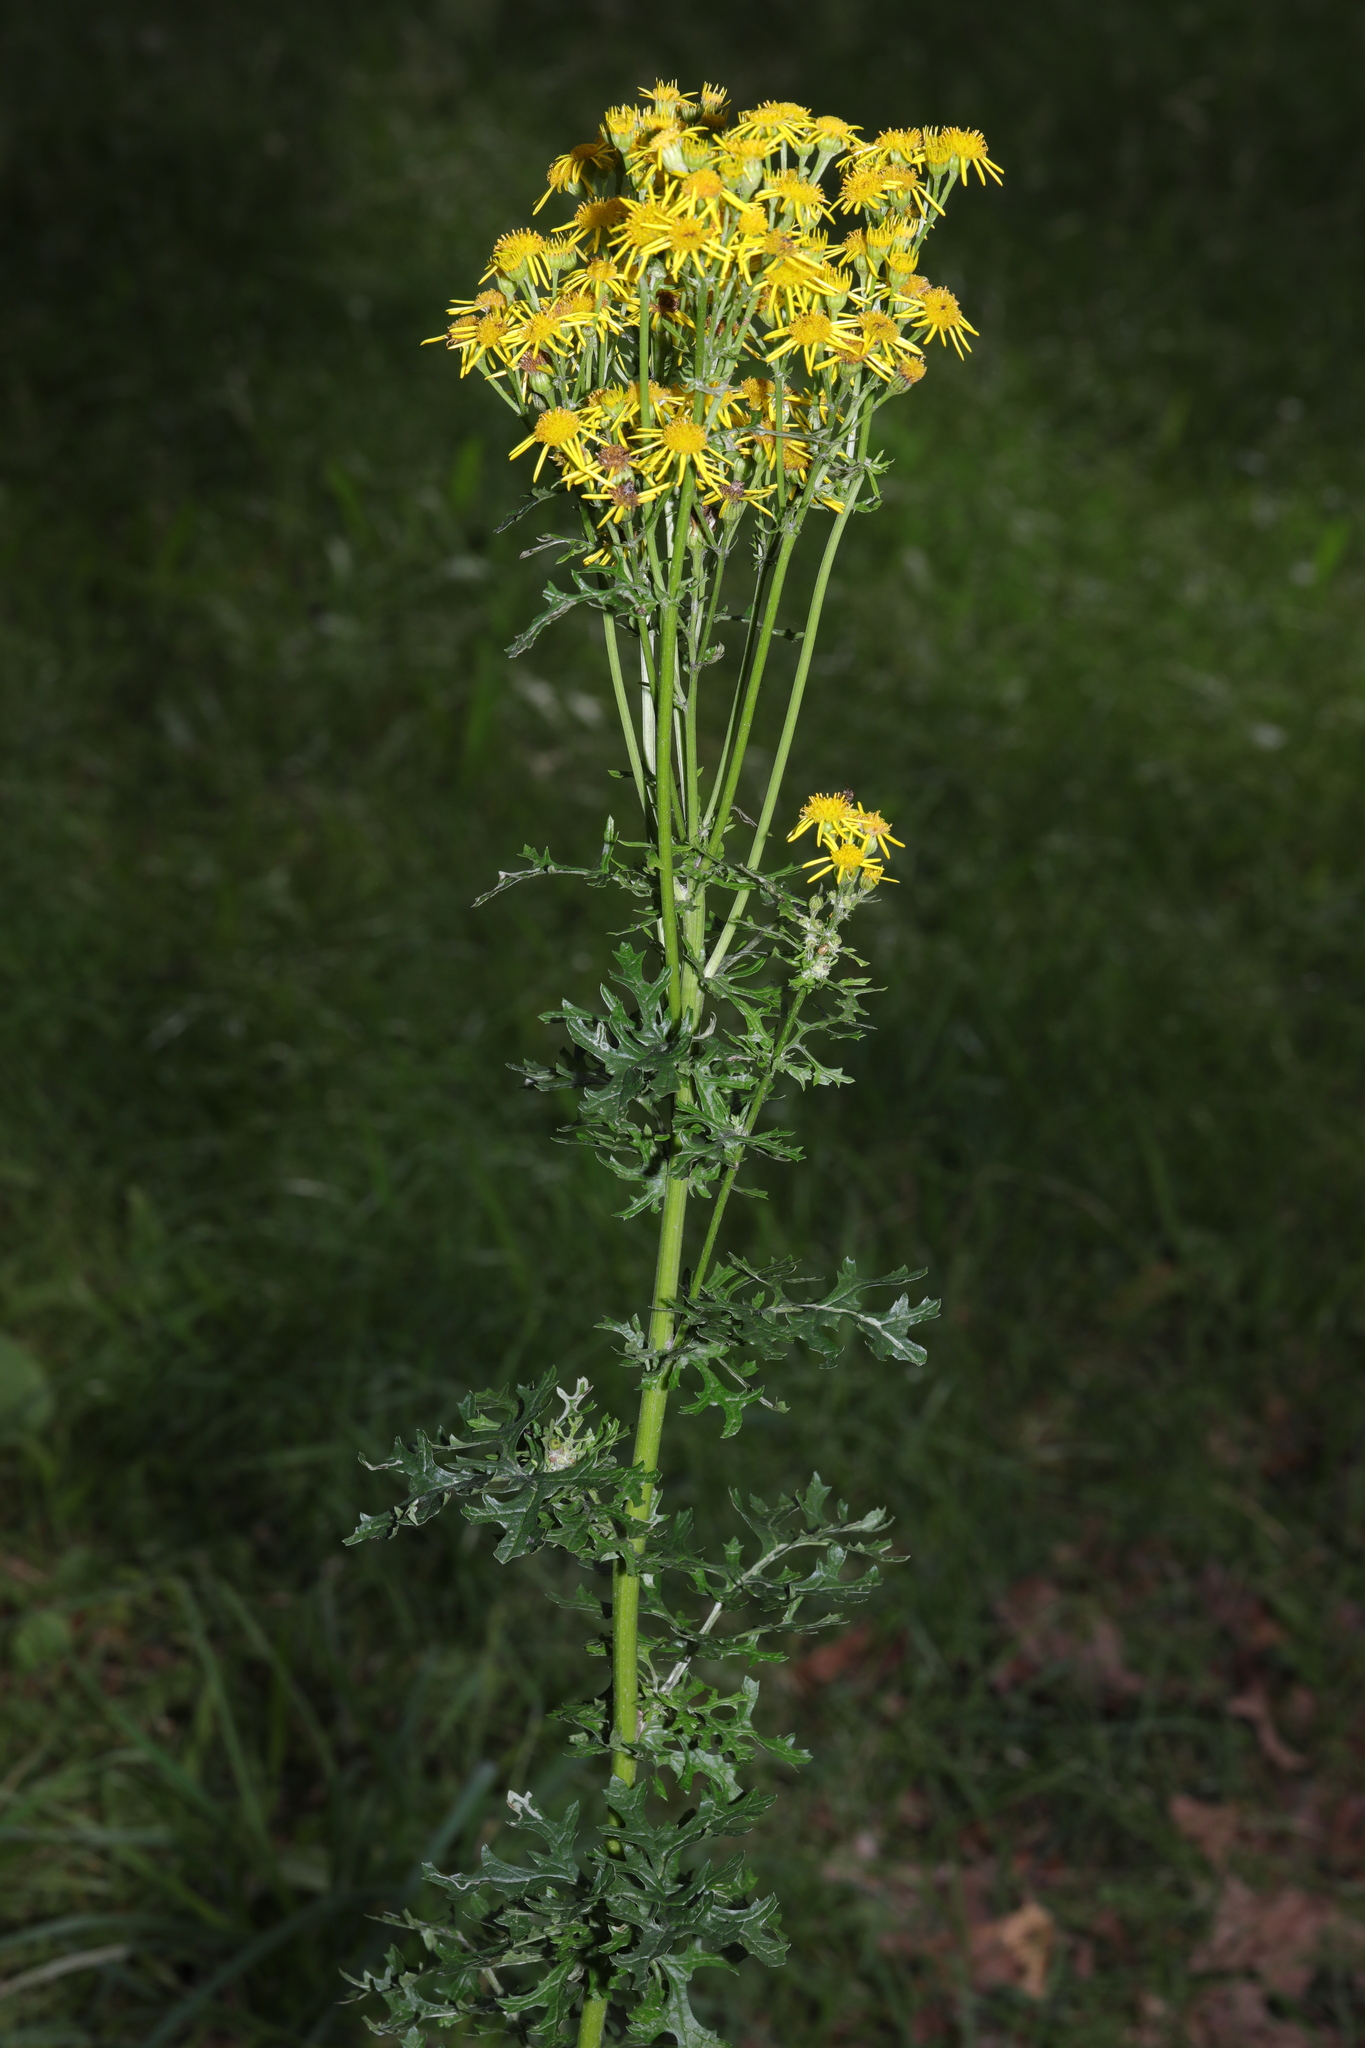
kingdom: Plantae
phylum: Tracheophyta
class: Magnoliopsida
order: Asterales
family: Asteraceae
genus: Jacobaea
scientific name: Jacobaea vulgaris
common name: Stinking willie
